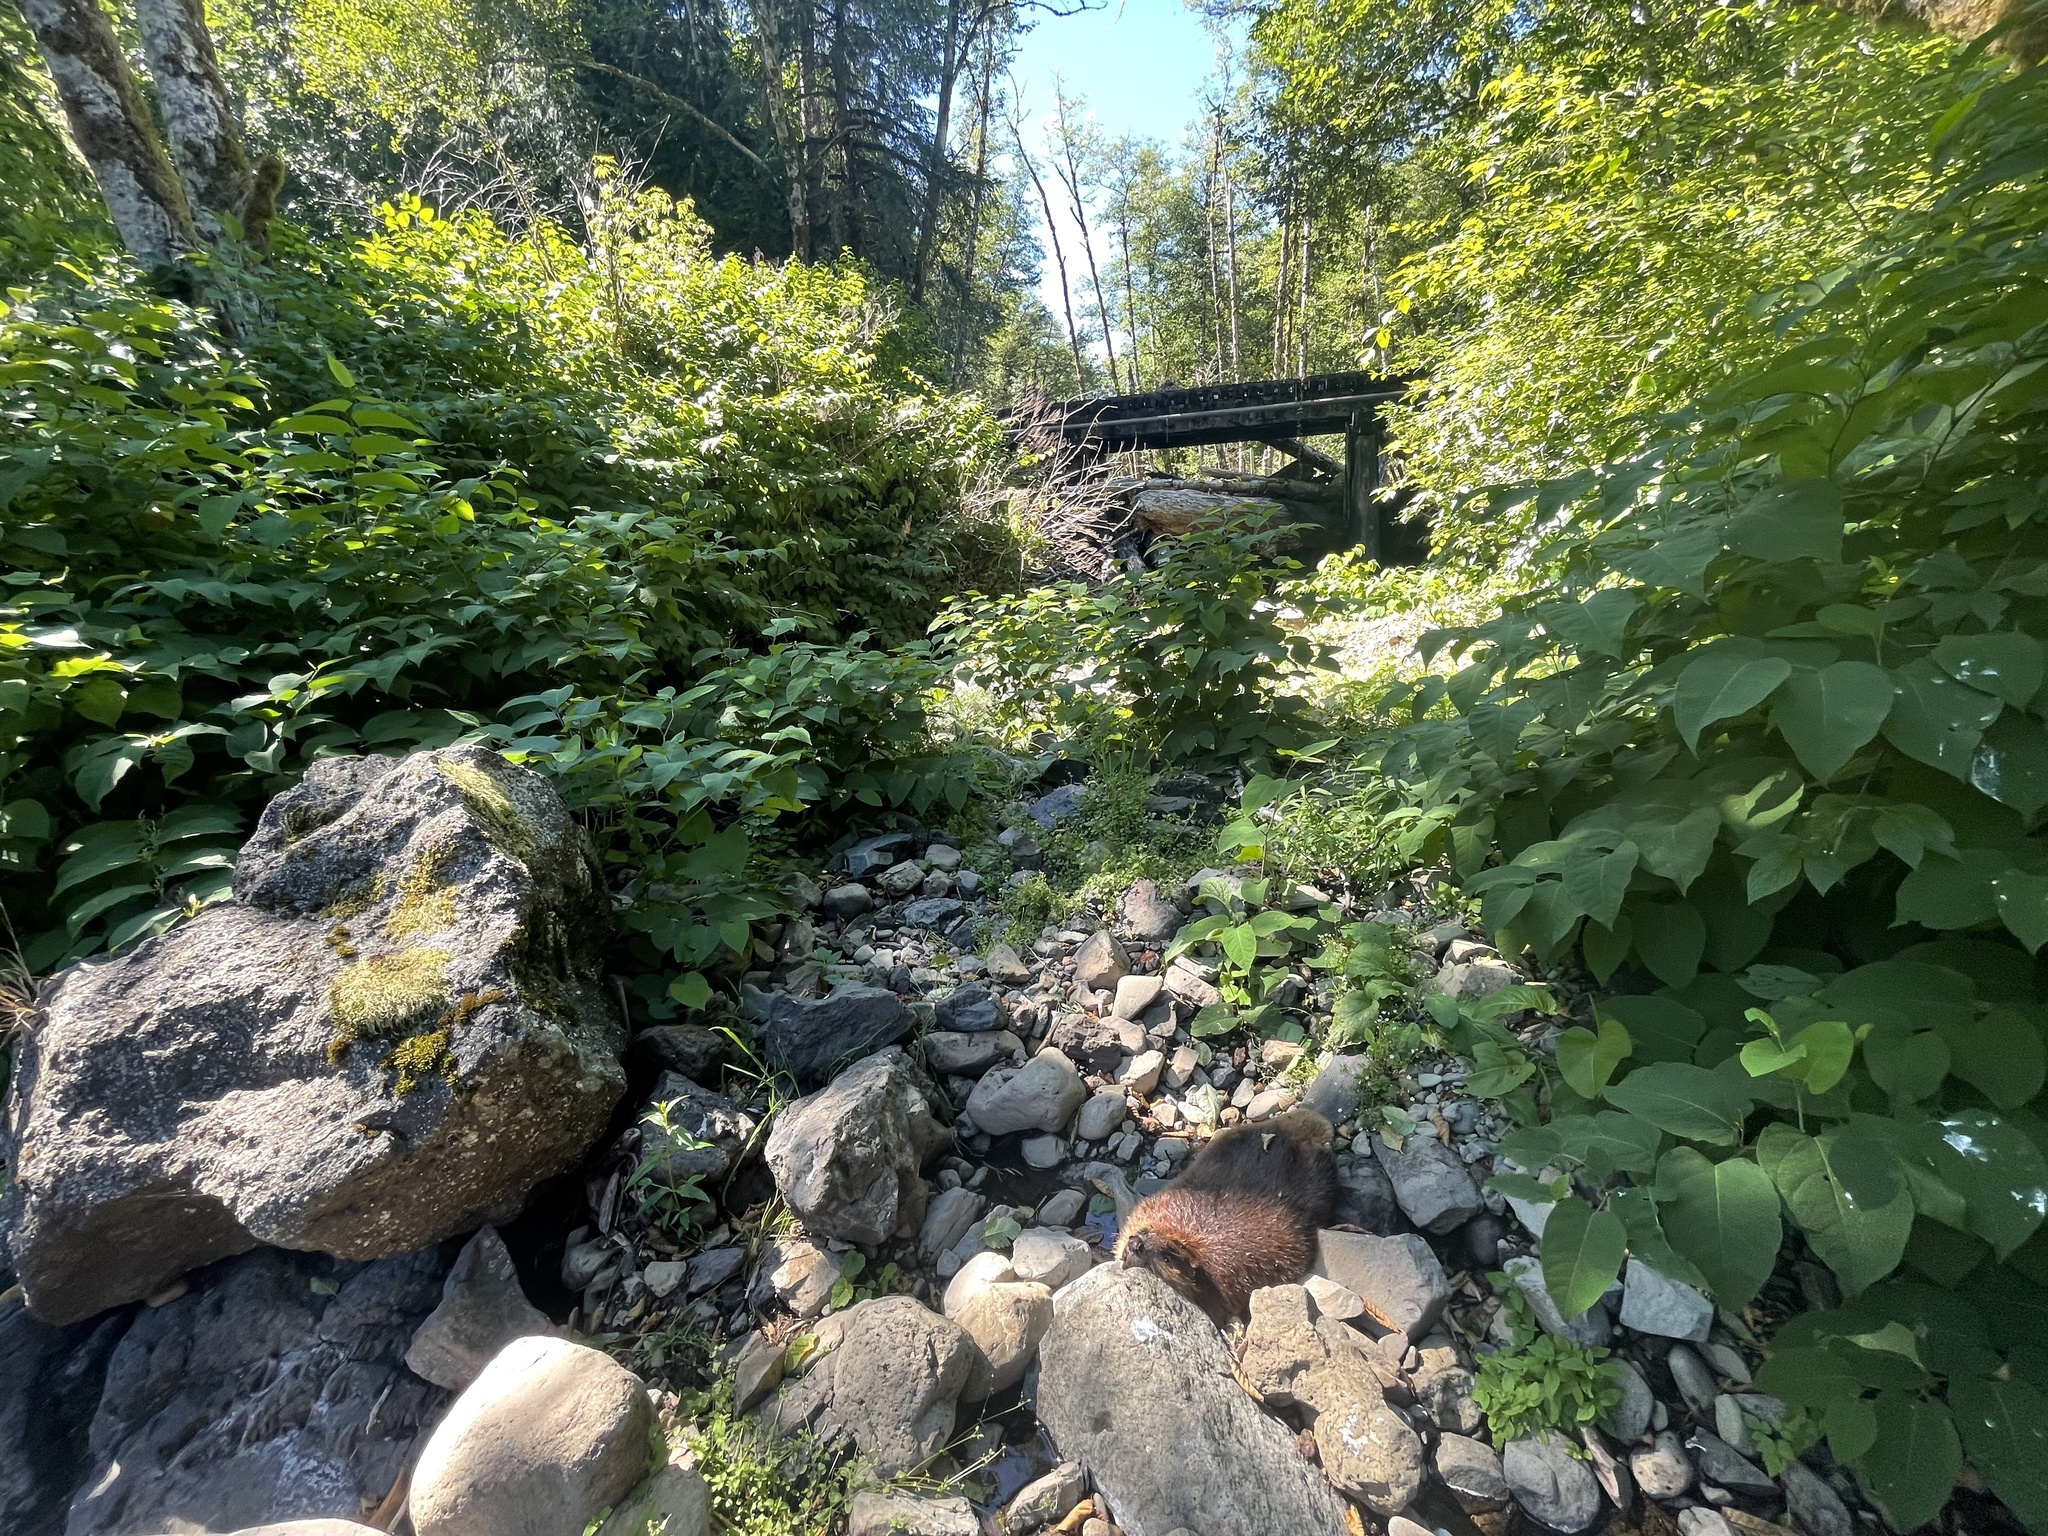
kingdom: Animalia
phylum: Chordata
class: Mammalia
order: Rodentia
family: Castoridae
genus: Castor
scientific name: Castor canadensis
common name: American beaver
